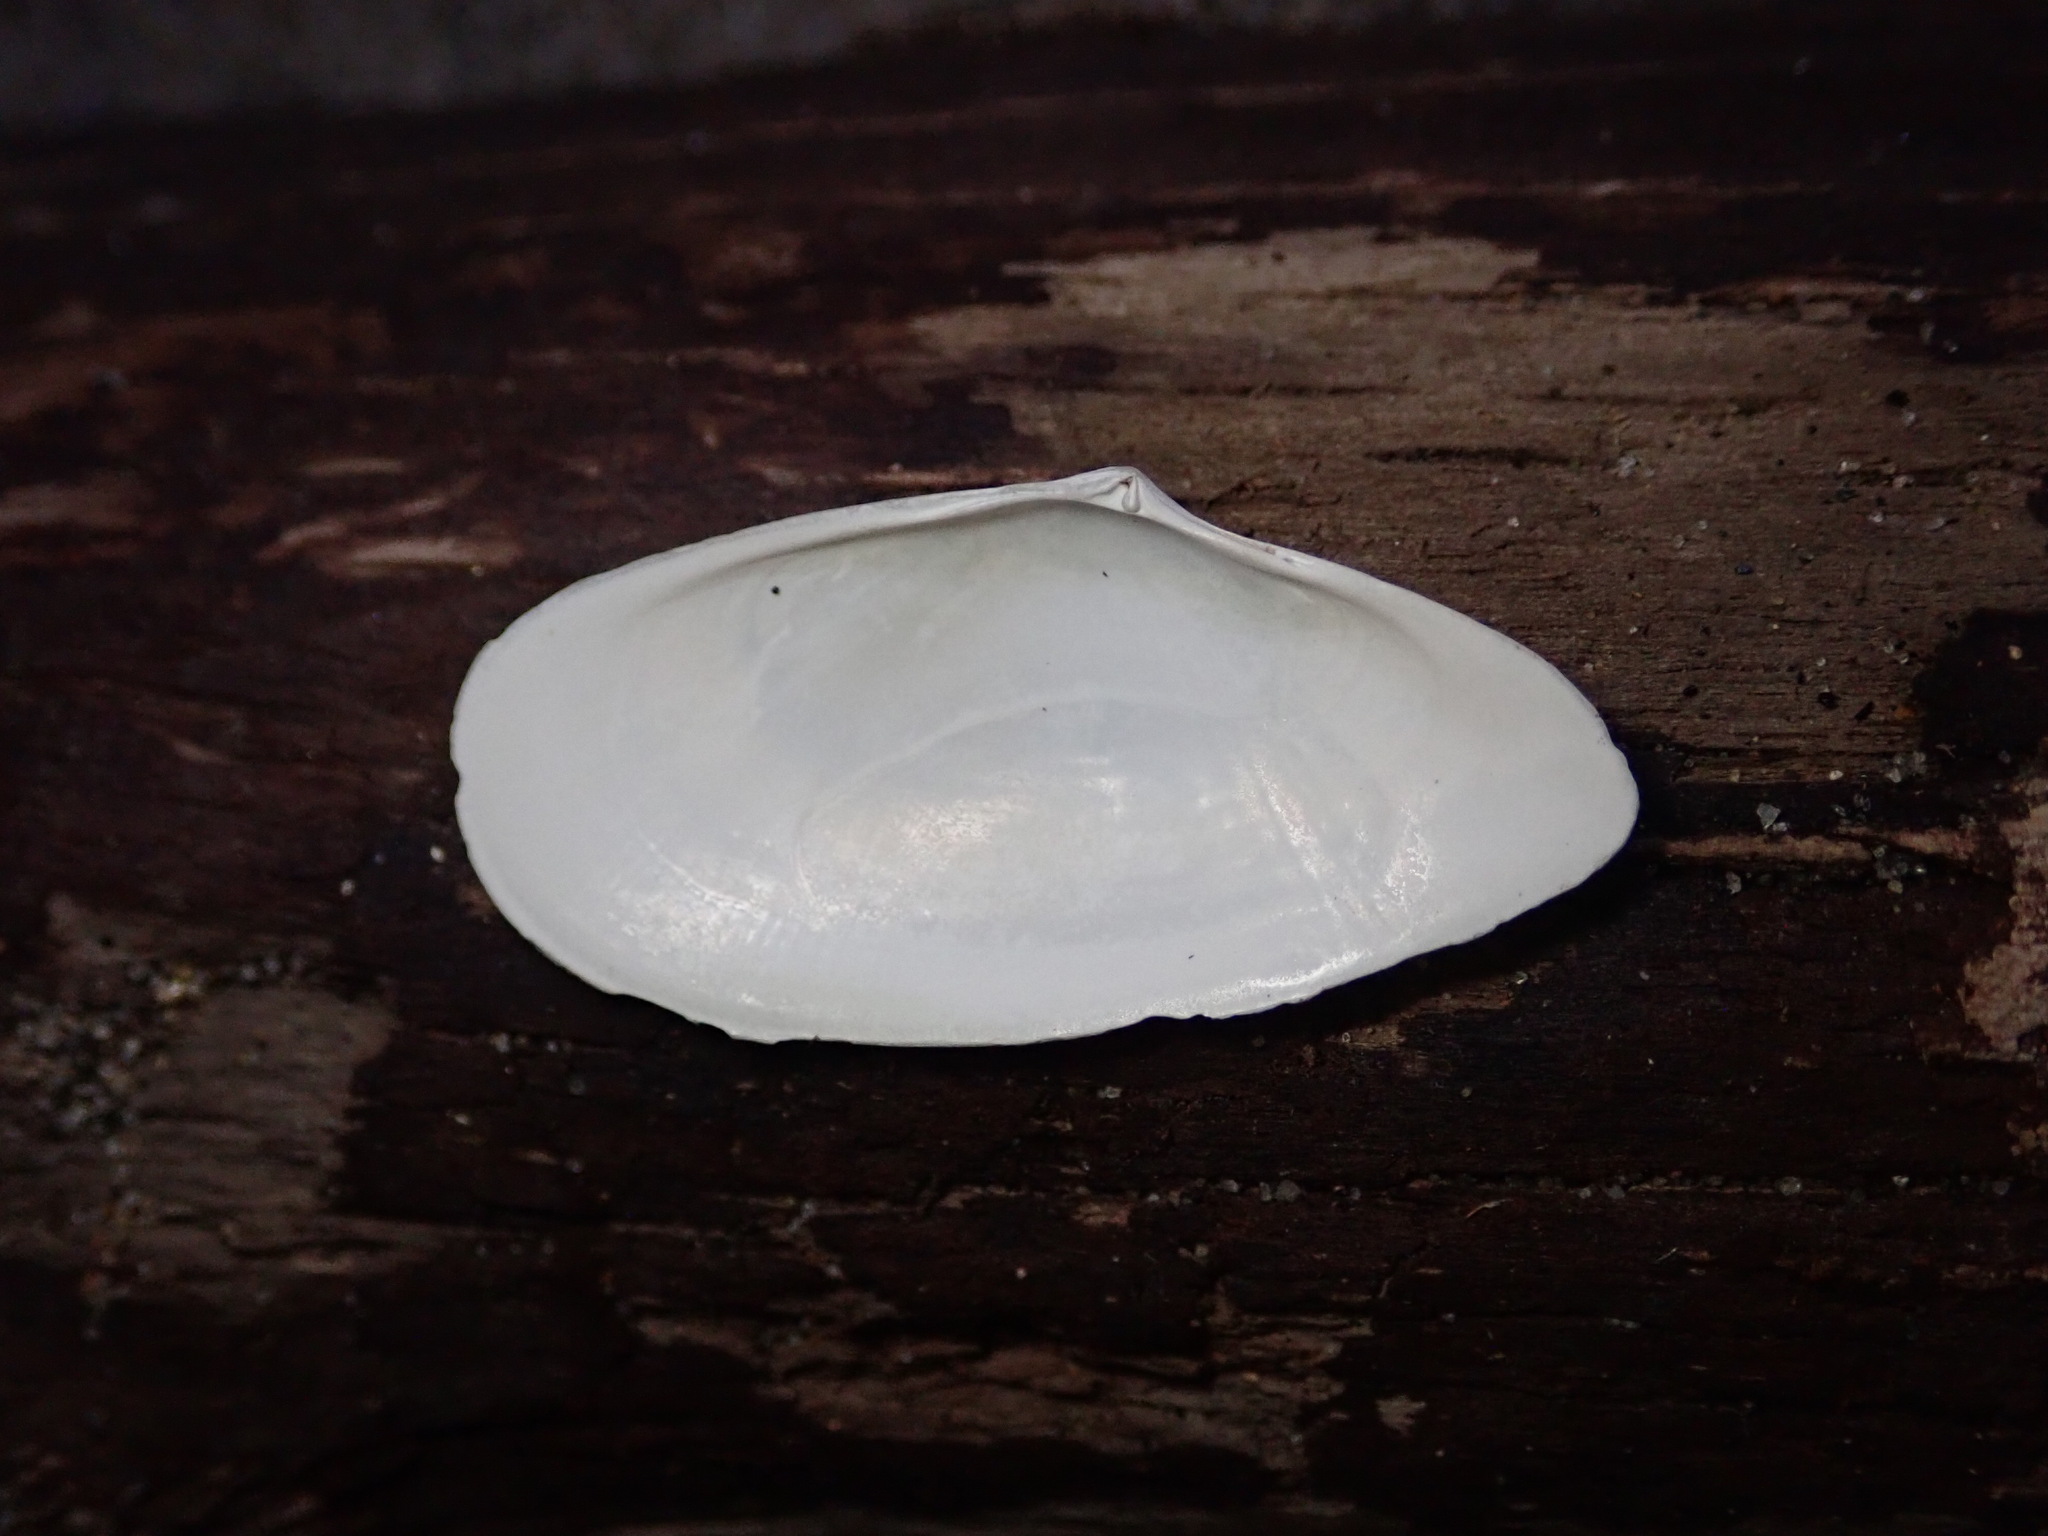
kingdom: Animalia
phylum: Mollusca
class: Bivalvia
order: Cardiida
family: Tellinidae
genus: Megangulus
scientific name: Megangulus bodegensis
